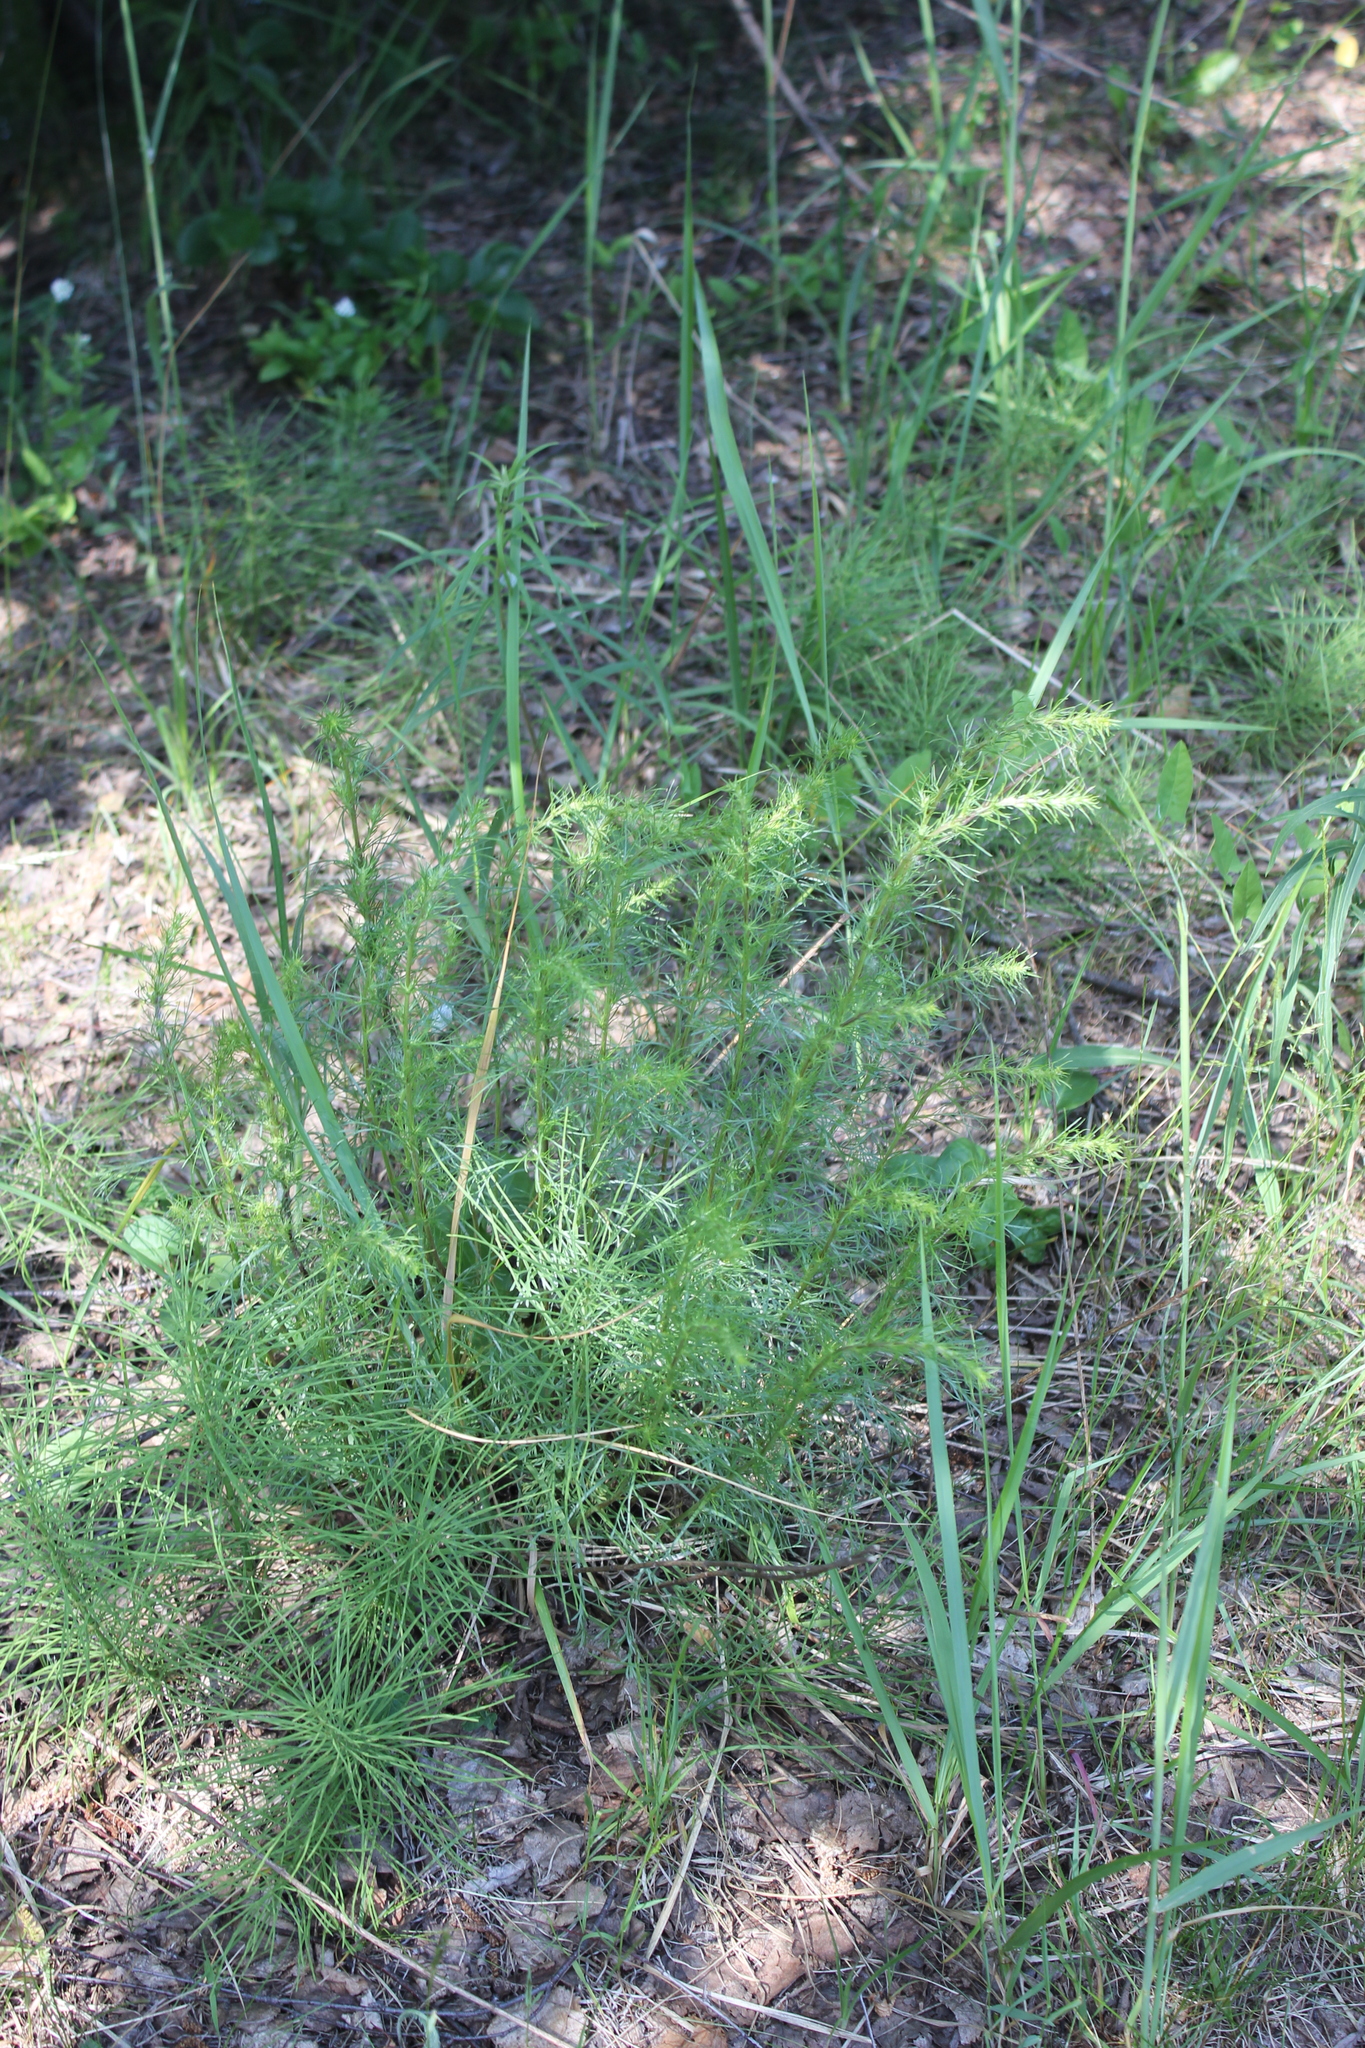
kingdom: Plantae
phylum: Tracheophyta
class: Magnoliopsida
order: Asterales
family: Asteraceae
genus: Artemisia
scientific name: Artemisia campestris
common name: Field wormwood
